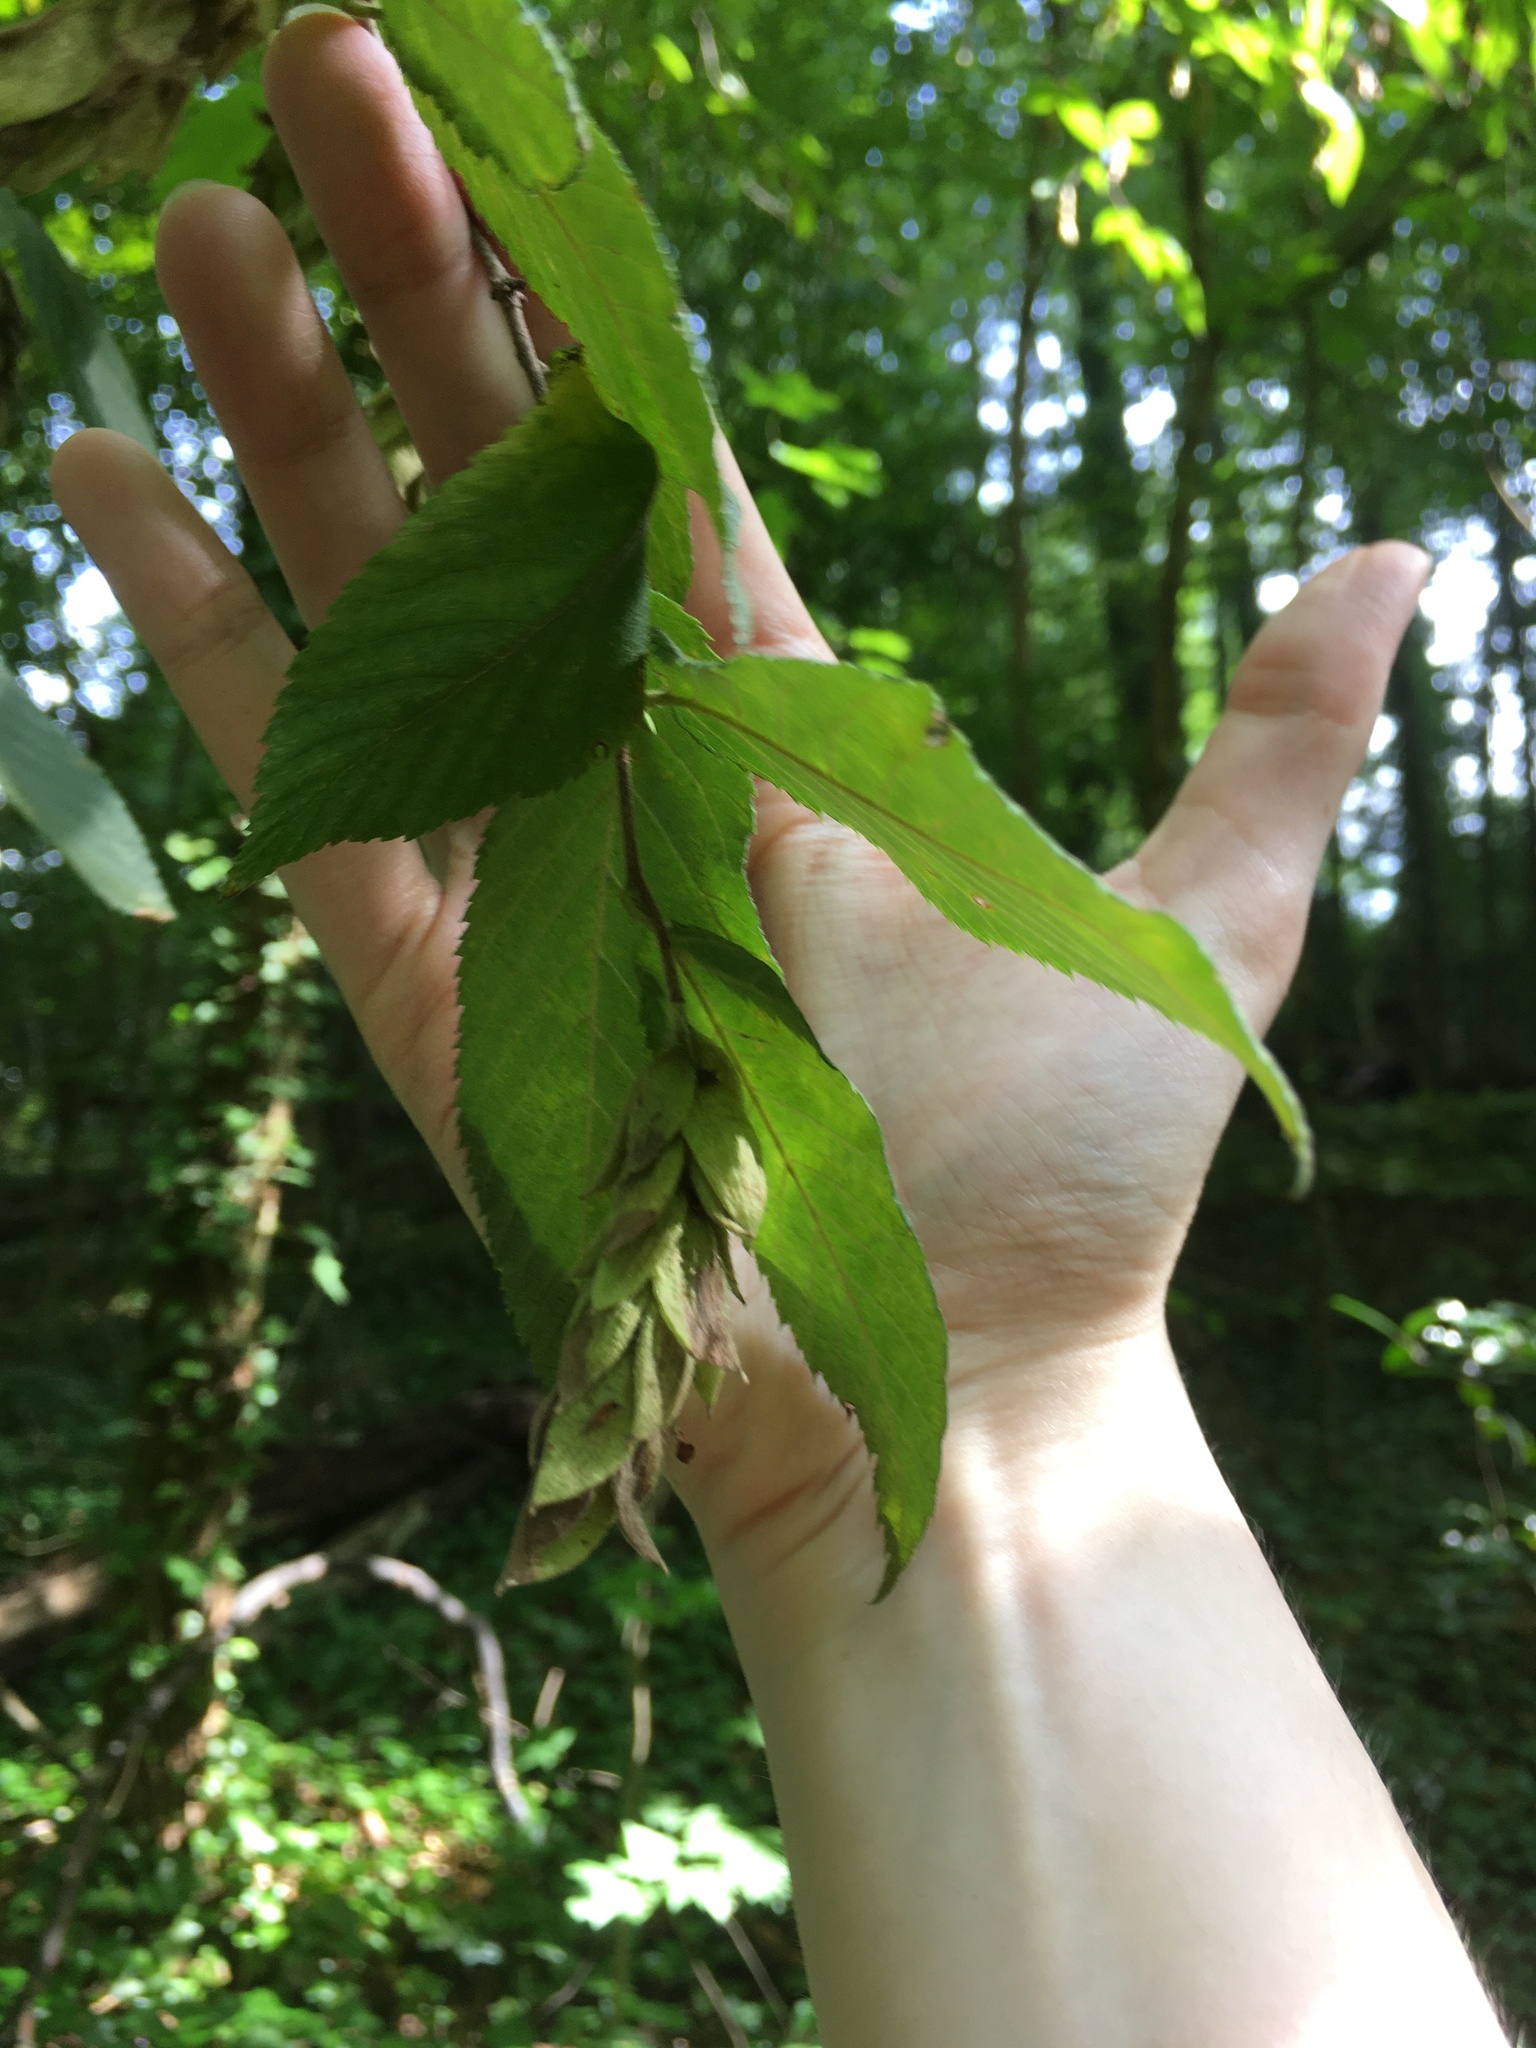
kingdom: Plantae
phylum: Tracheophyta
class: Magnoliopsida
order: Fagales
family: Betulaceae
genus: Ostrya
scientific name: Ostrya virginiana
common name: Ironwood
